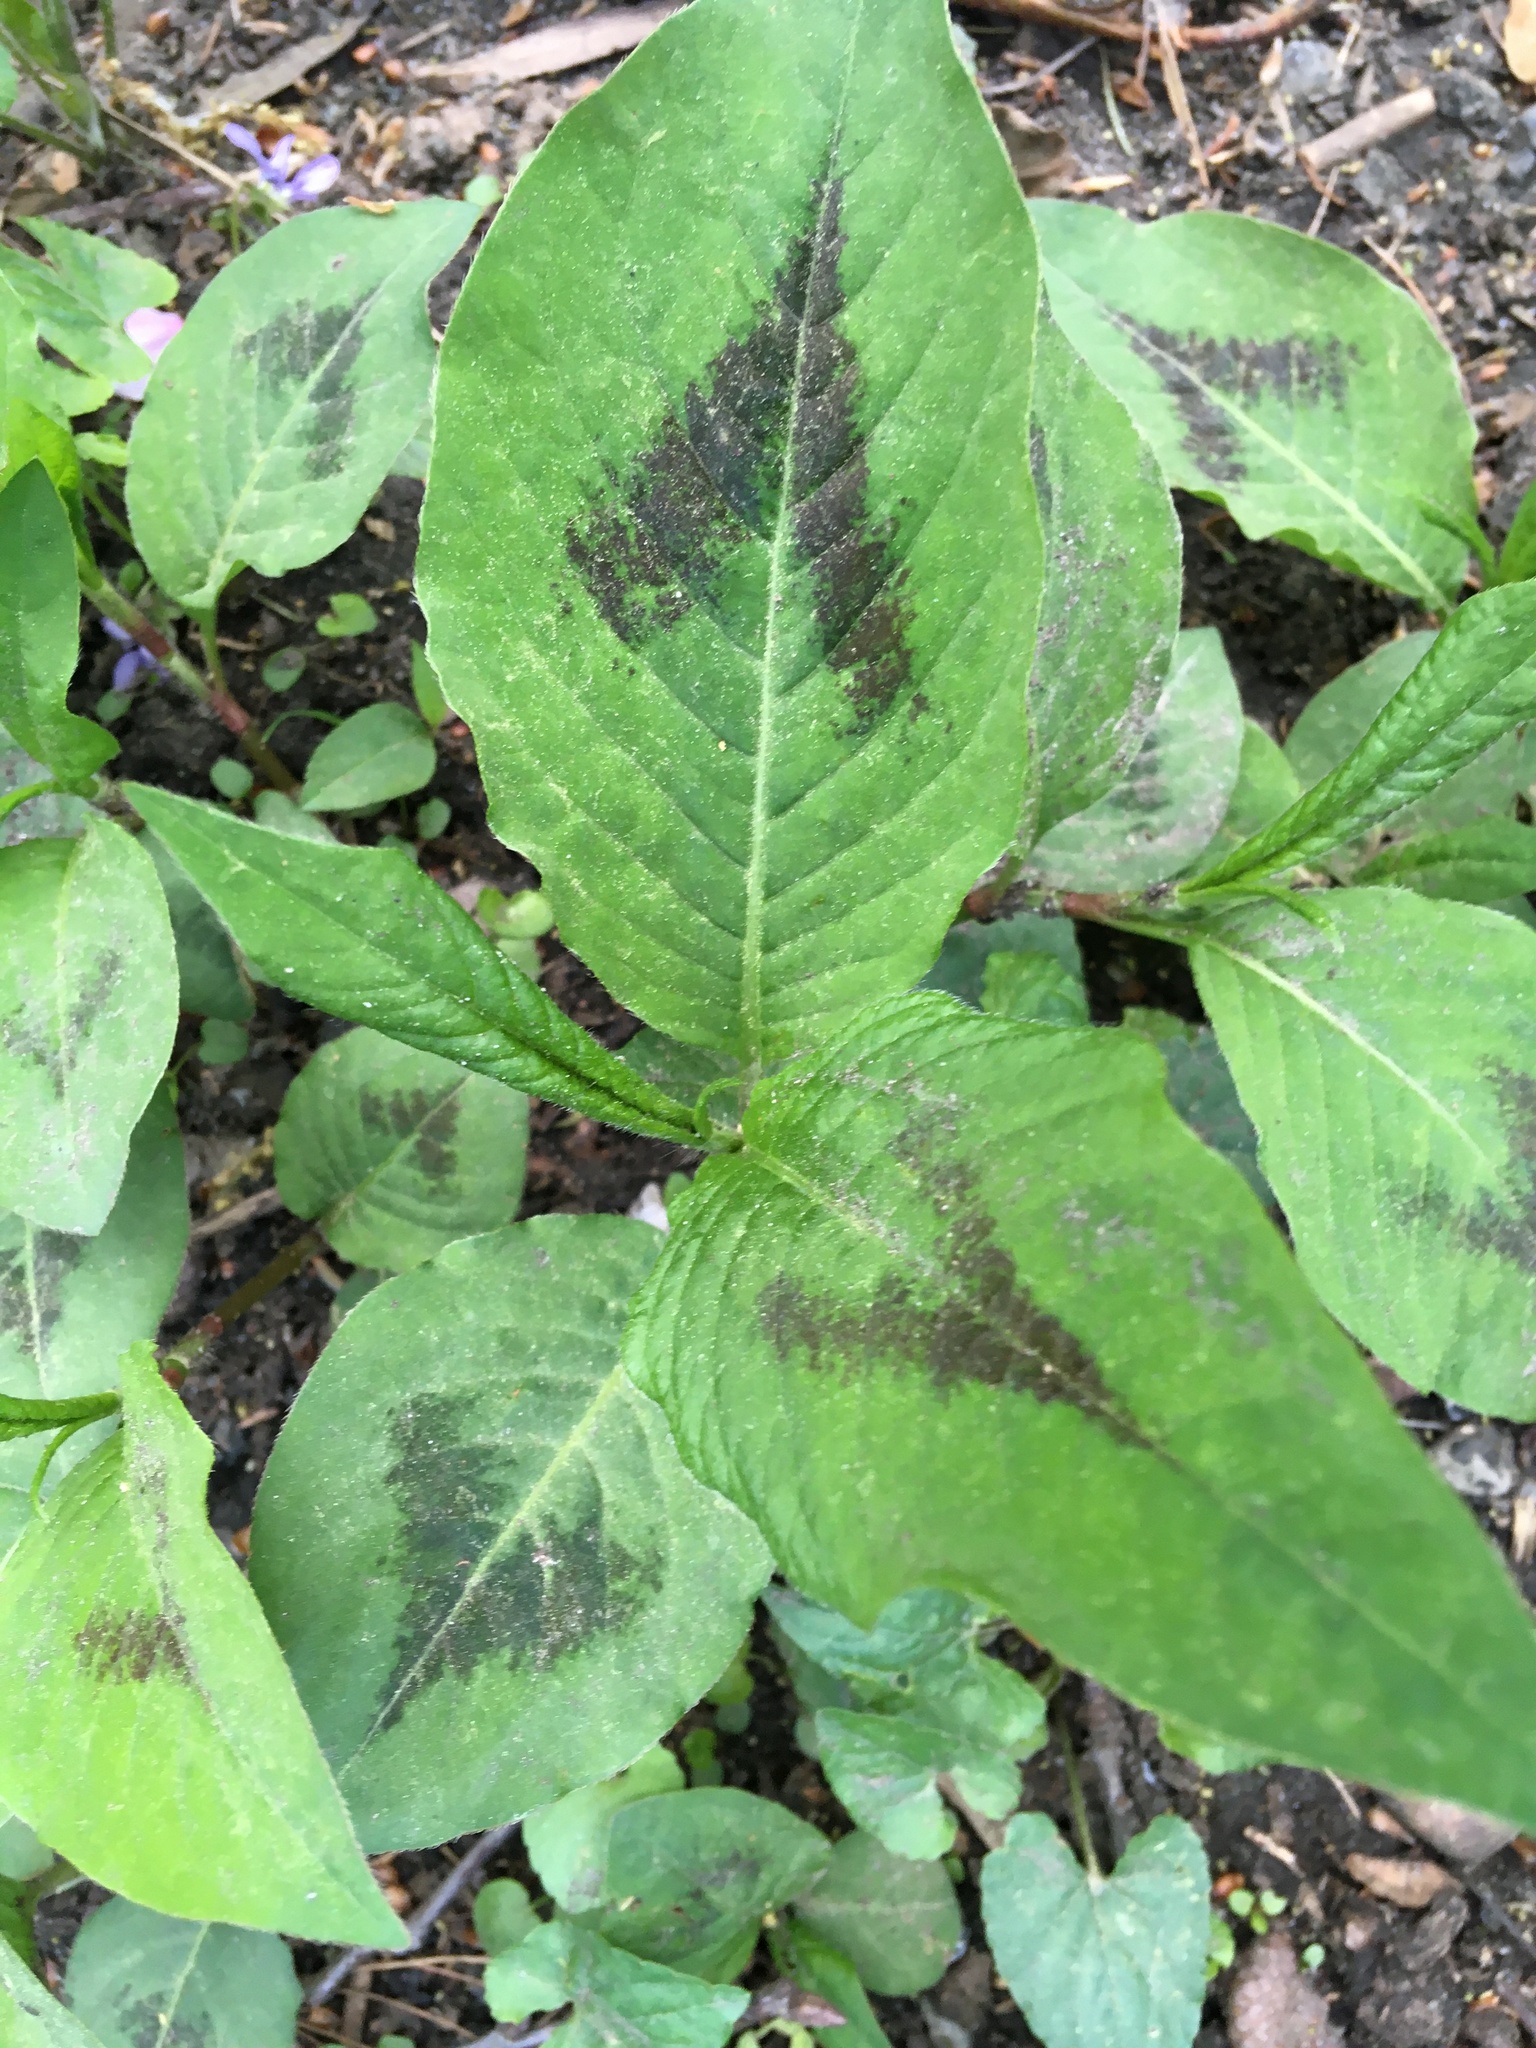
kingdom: Plantae
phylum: Tracheophyta
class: Magnoliopsida
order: Caryophyllales
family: Polygonaceae
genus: Persicaria
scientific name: Persicaria virginiana
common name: Jumpseed
